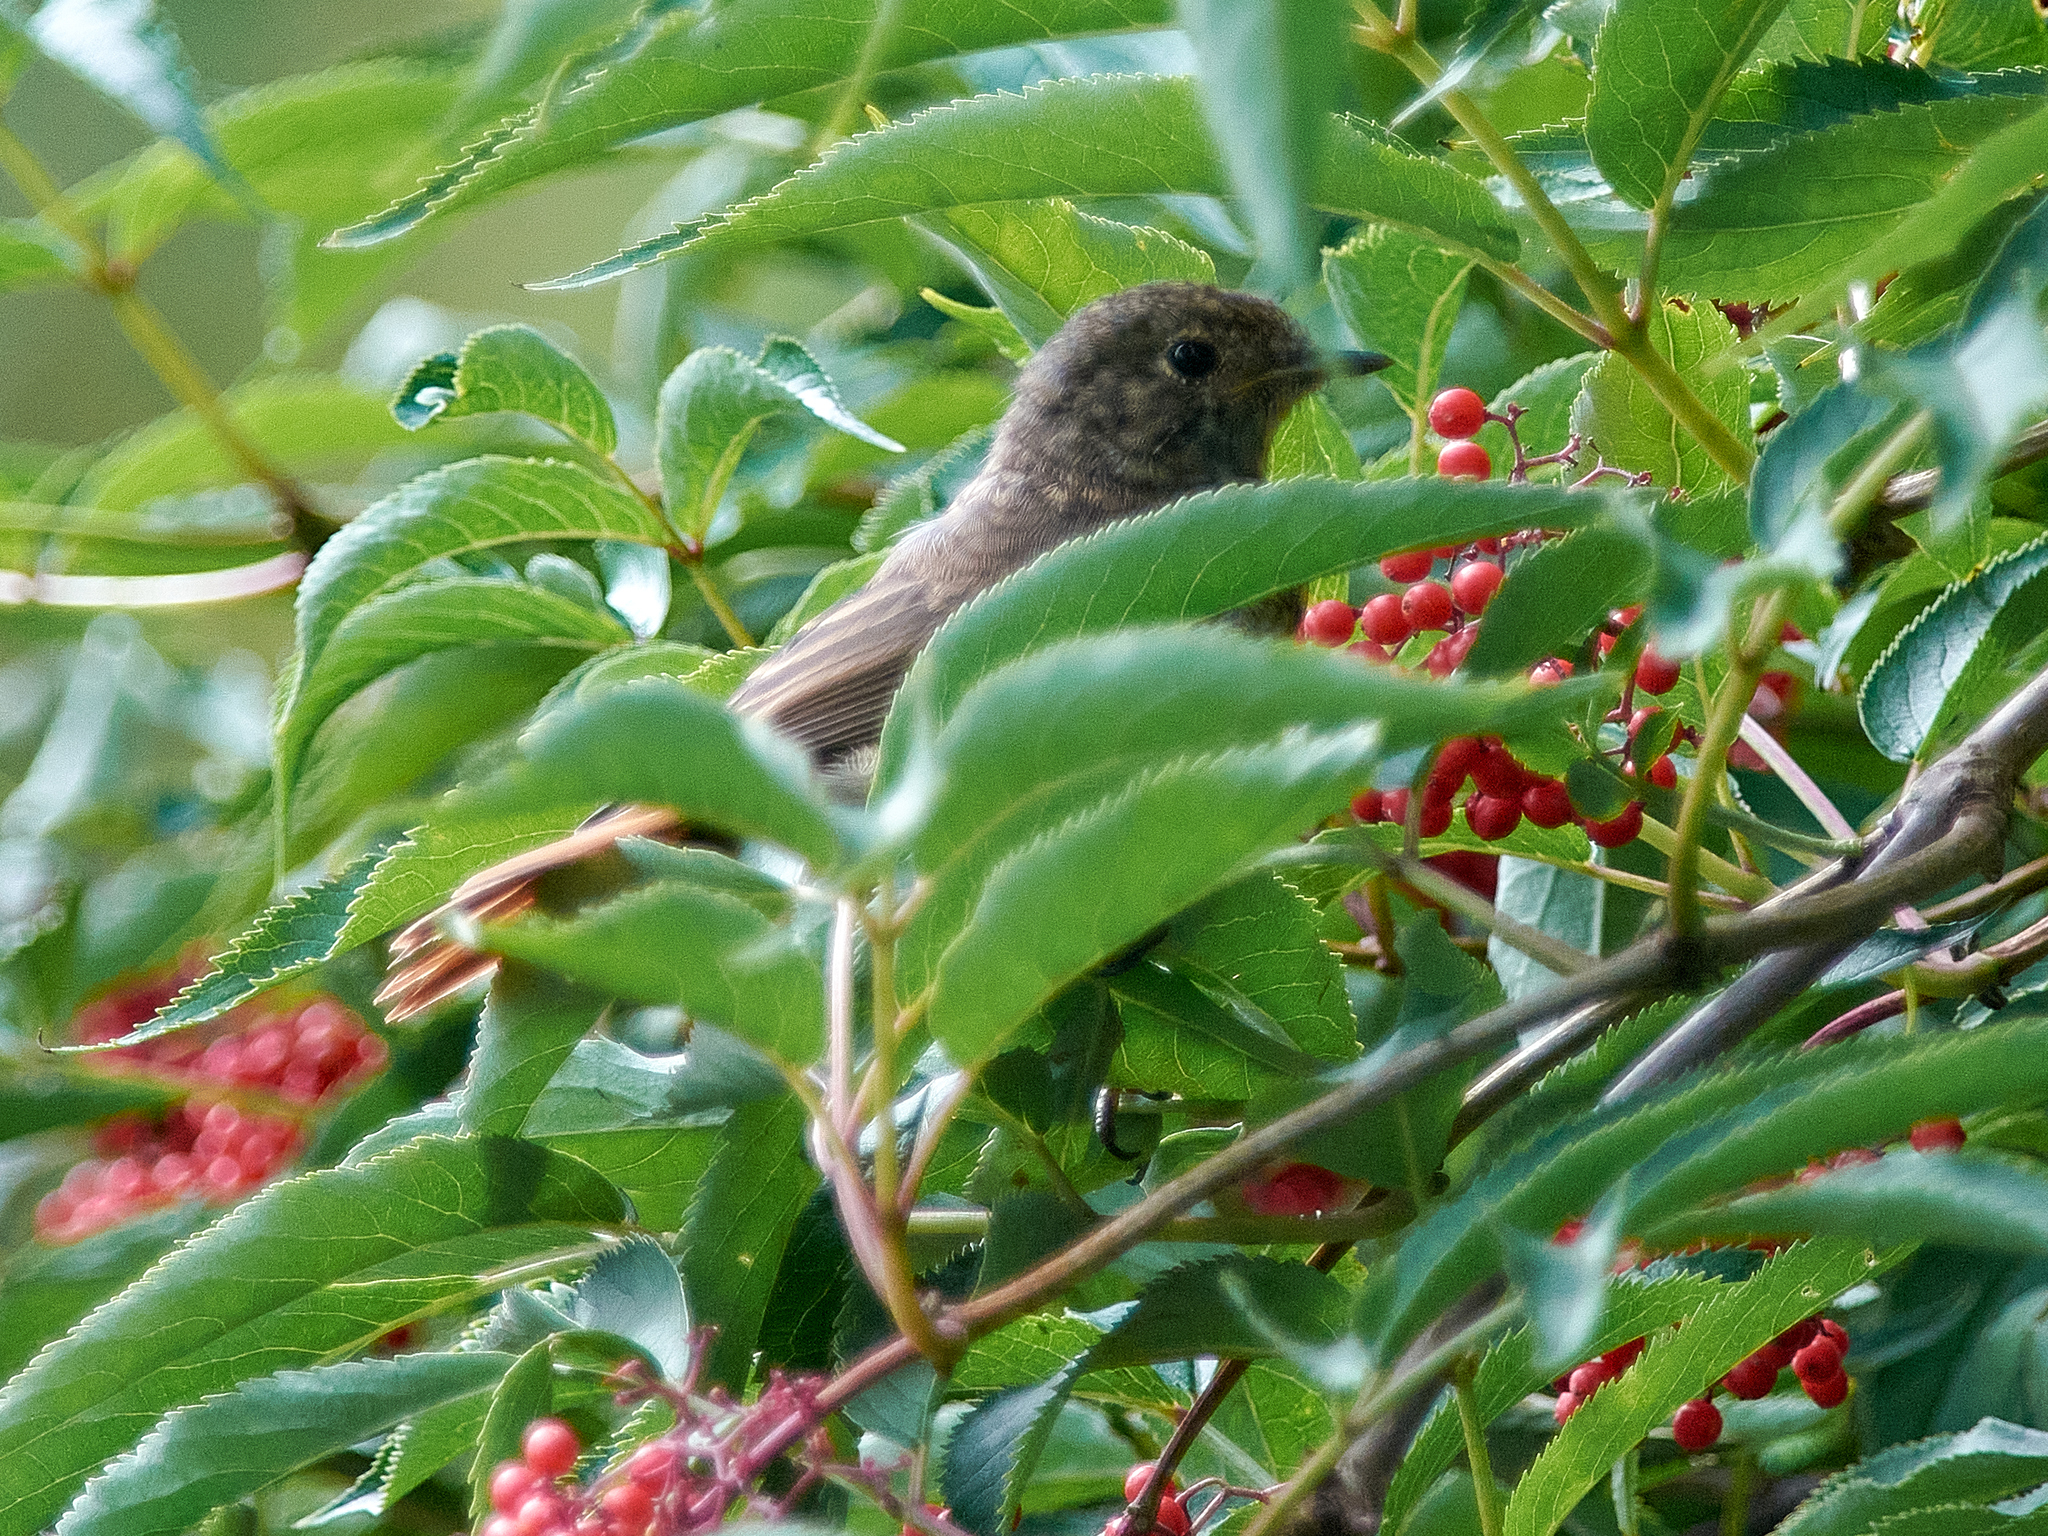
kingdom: Animalia
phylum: Chordata
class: Aves
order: Passeriformes
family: Muscicapidae
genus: Phoenicurus
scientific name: Phoenicurus phoenicurus
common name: Common redstart
